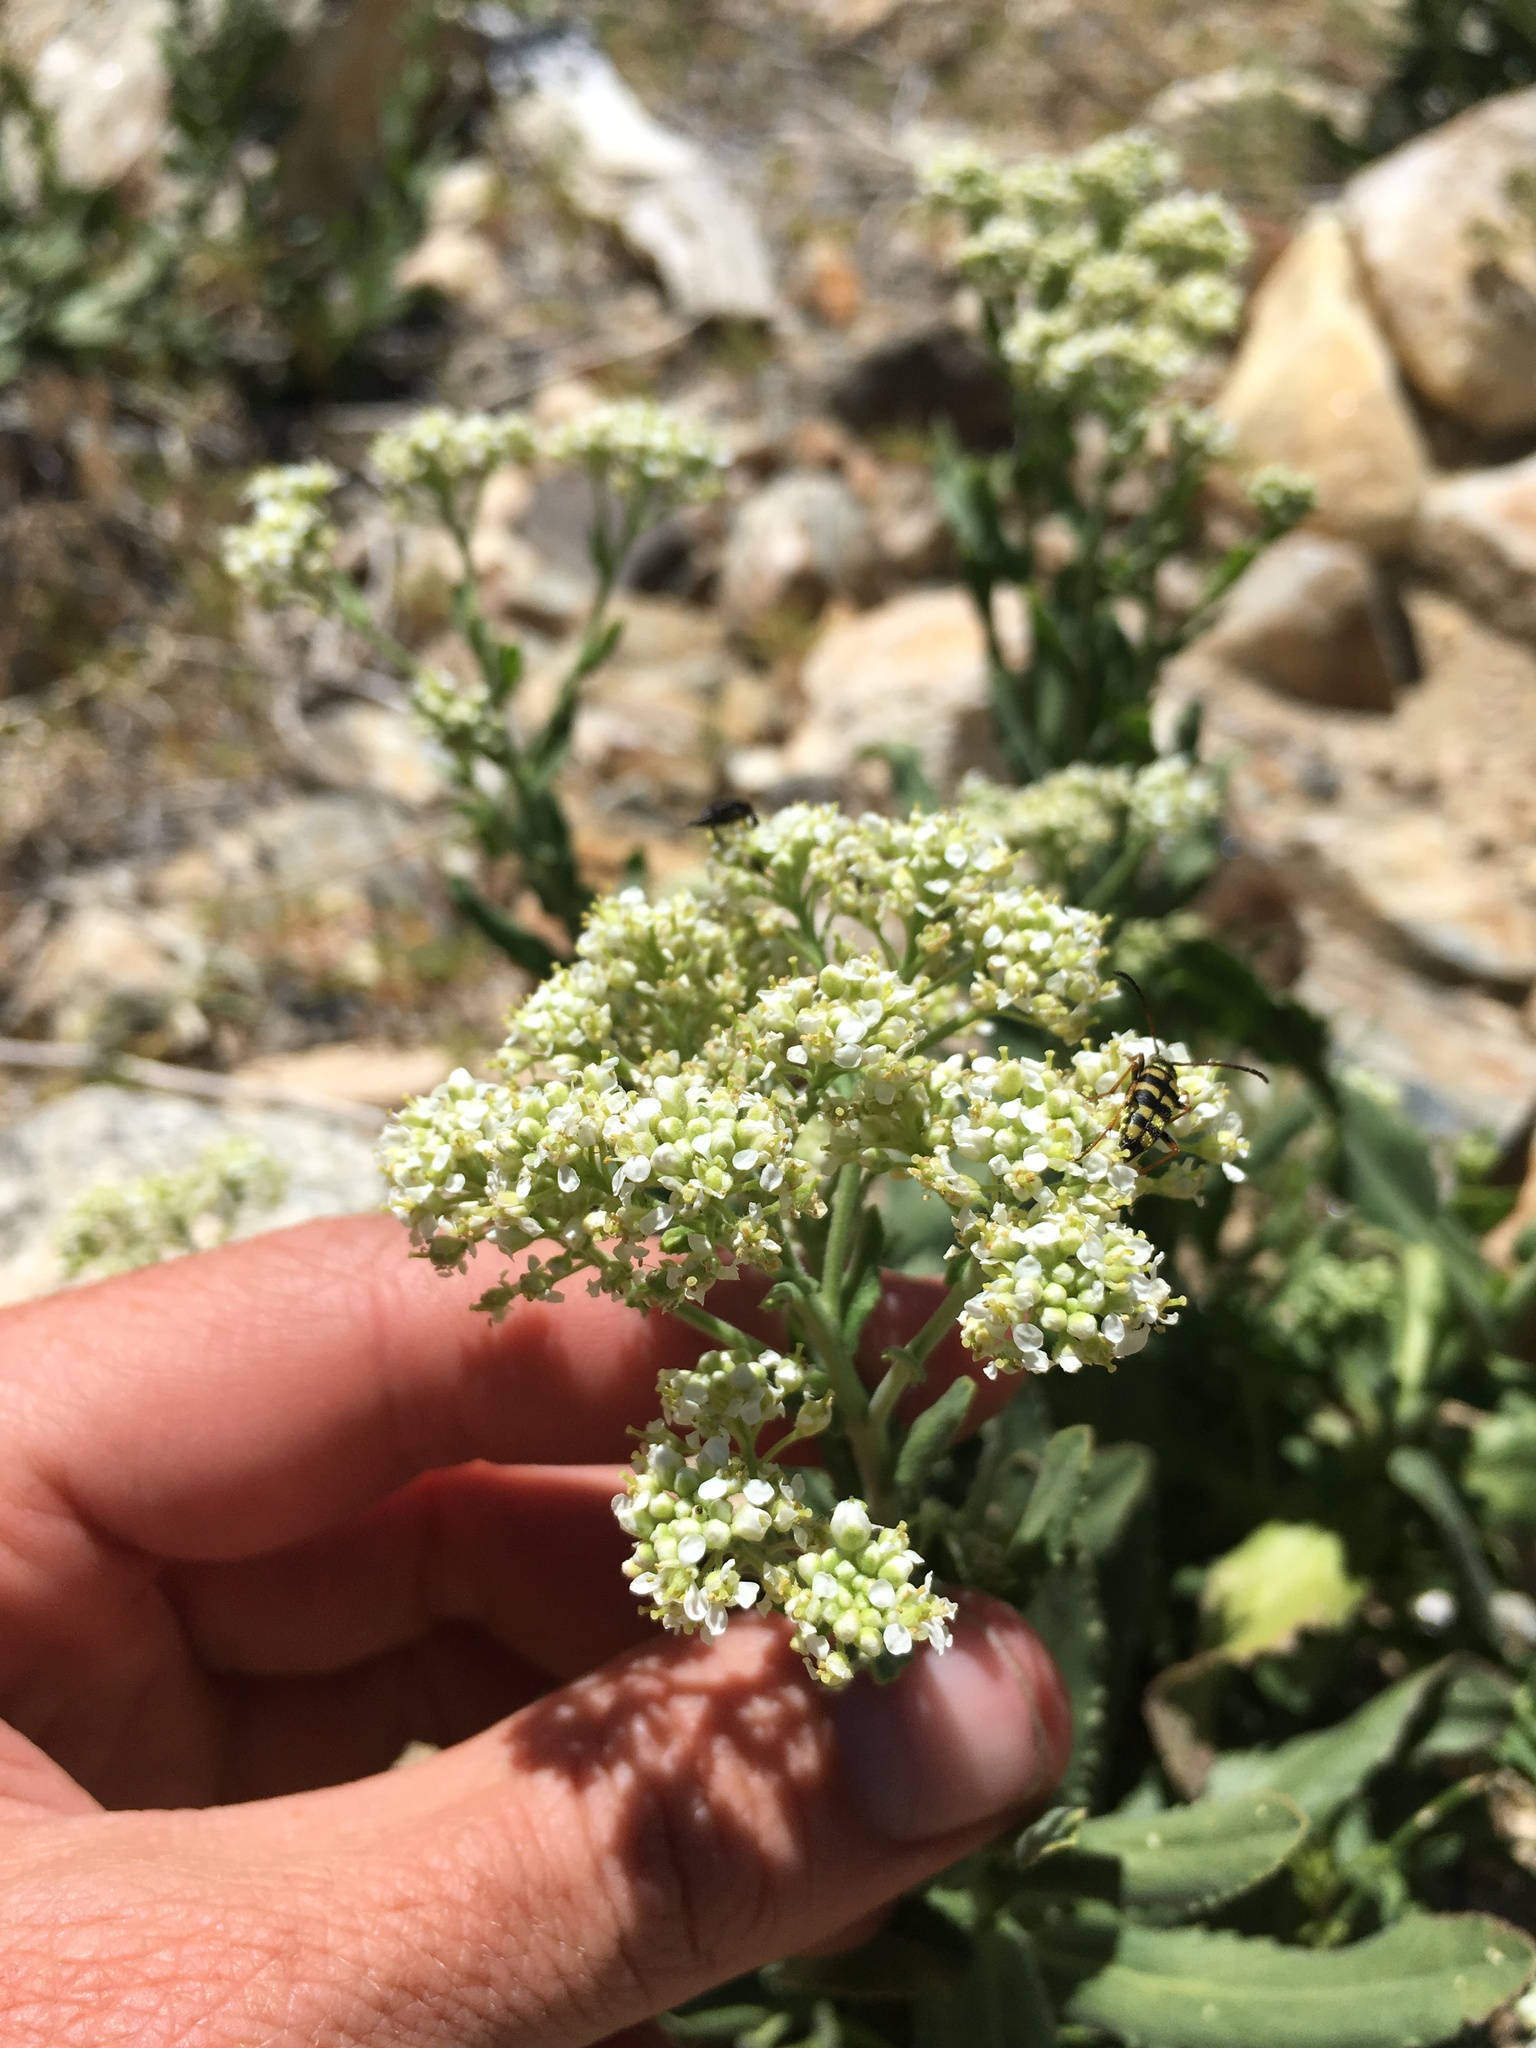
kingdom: Plantae
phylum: Tracheophyta
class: Magnoliopsida
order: Brassicales
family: Brassicaceae
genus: Lepidium
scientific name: Lepidium appelianum
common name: Hairy whitetop
